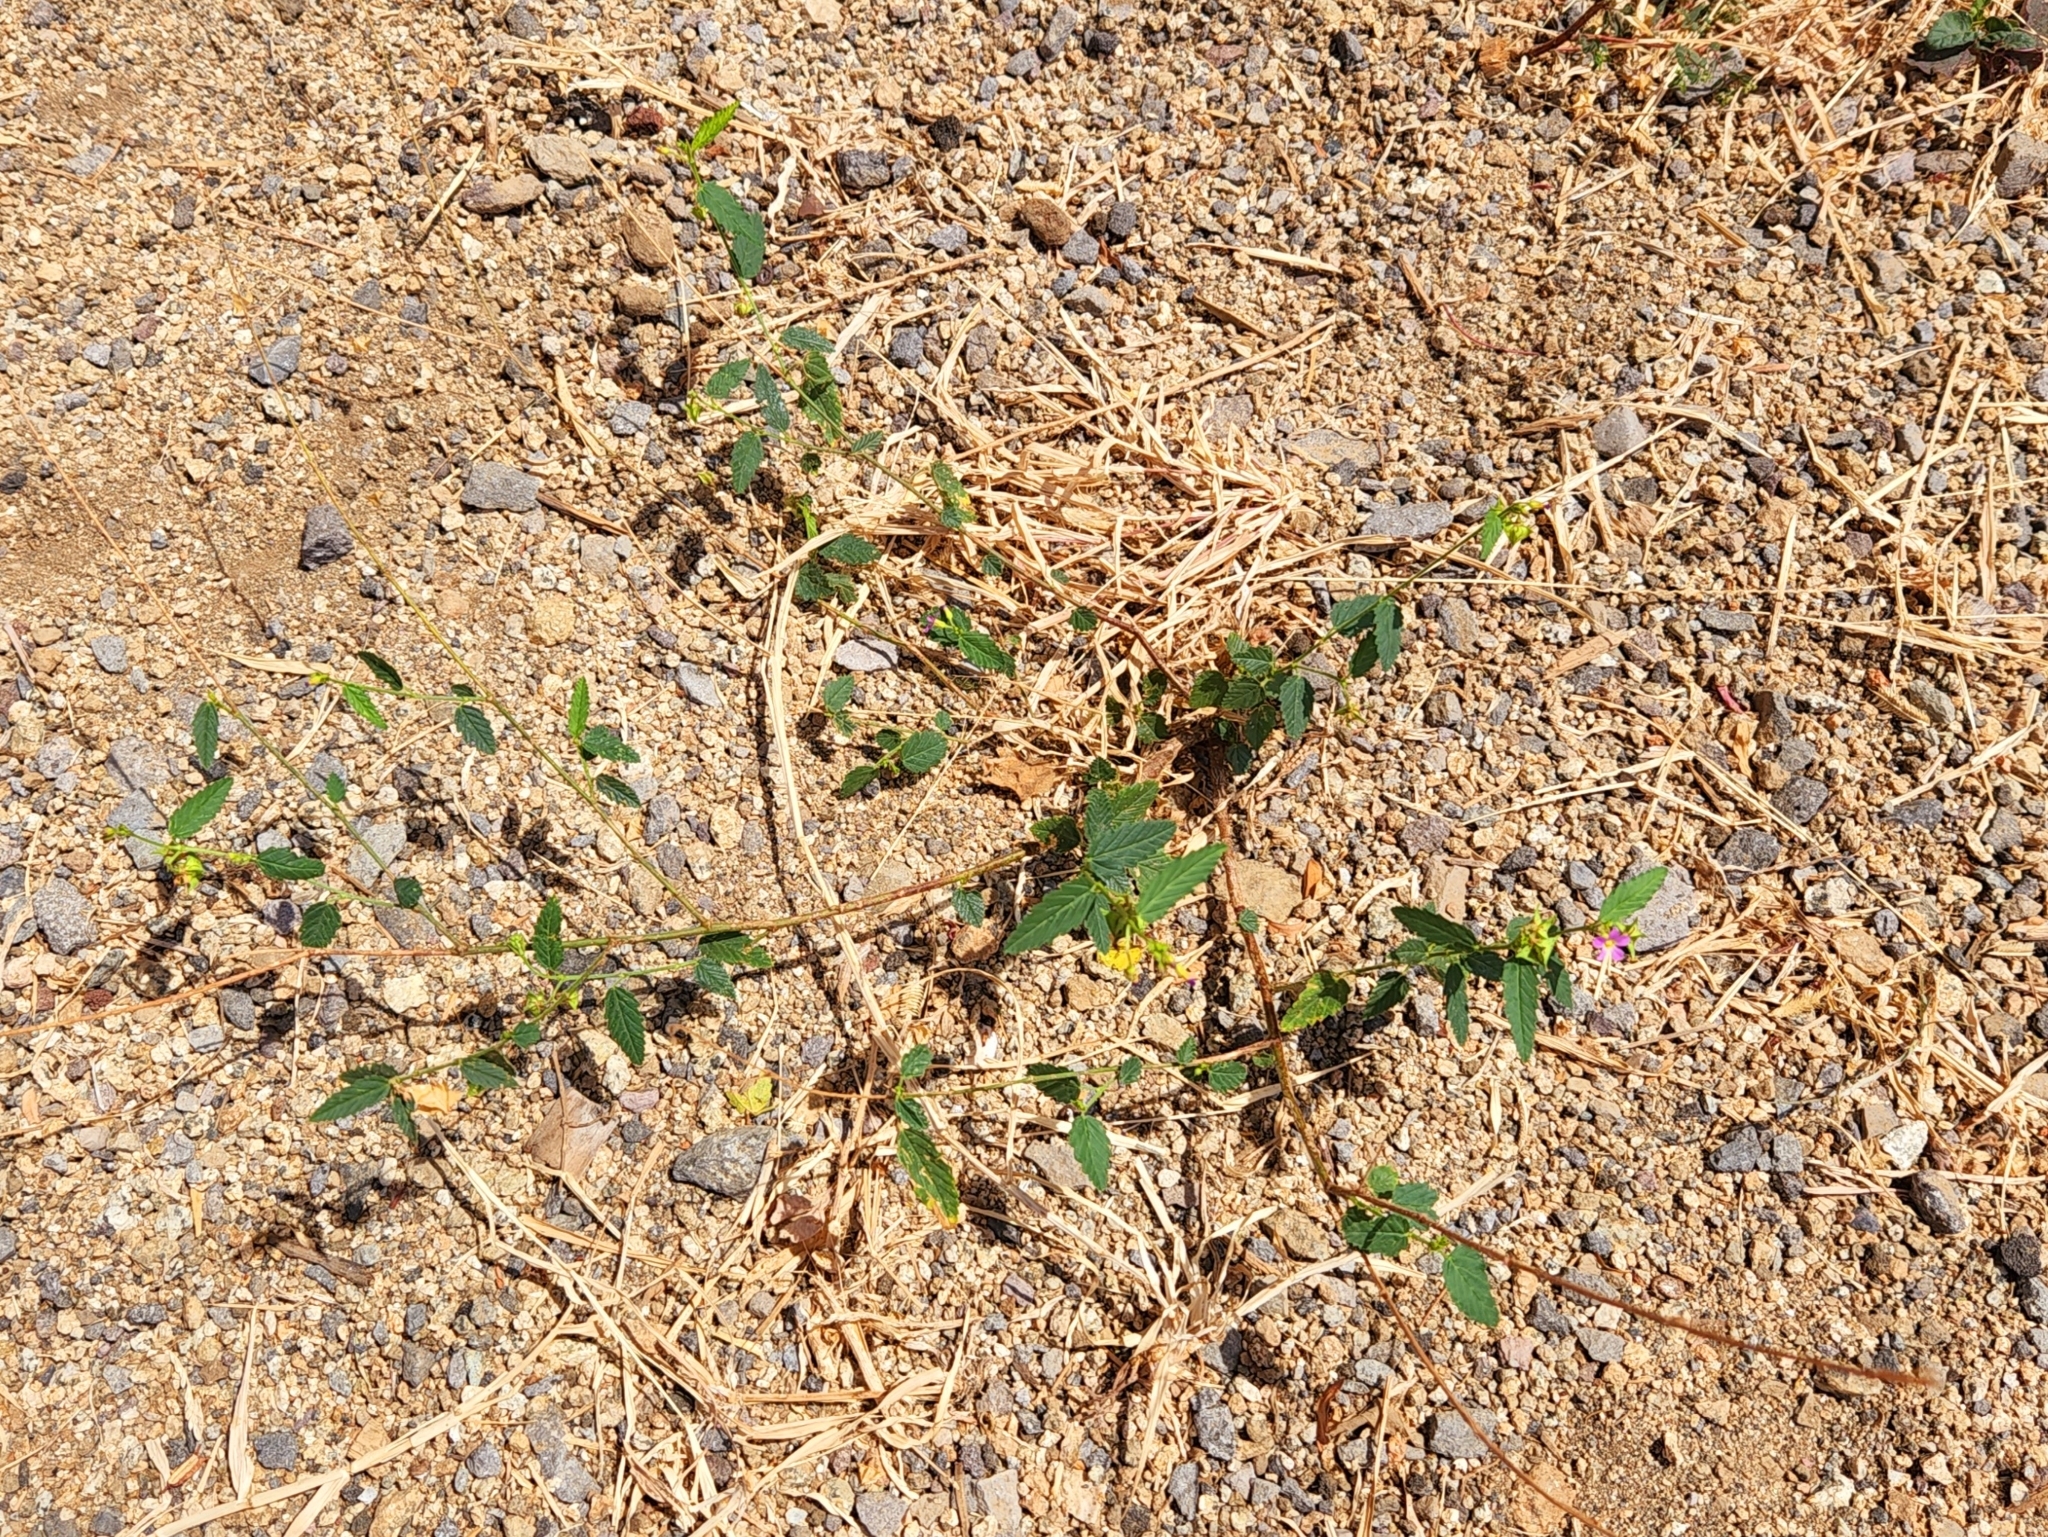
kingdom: Plantae
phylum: Tracheophyta
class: Magnoliopsida
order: Malvales
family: Malvaceae
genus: Melochia
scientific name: Melochia pyramidata
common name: Pyramidflower
